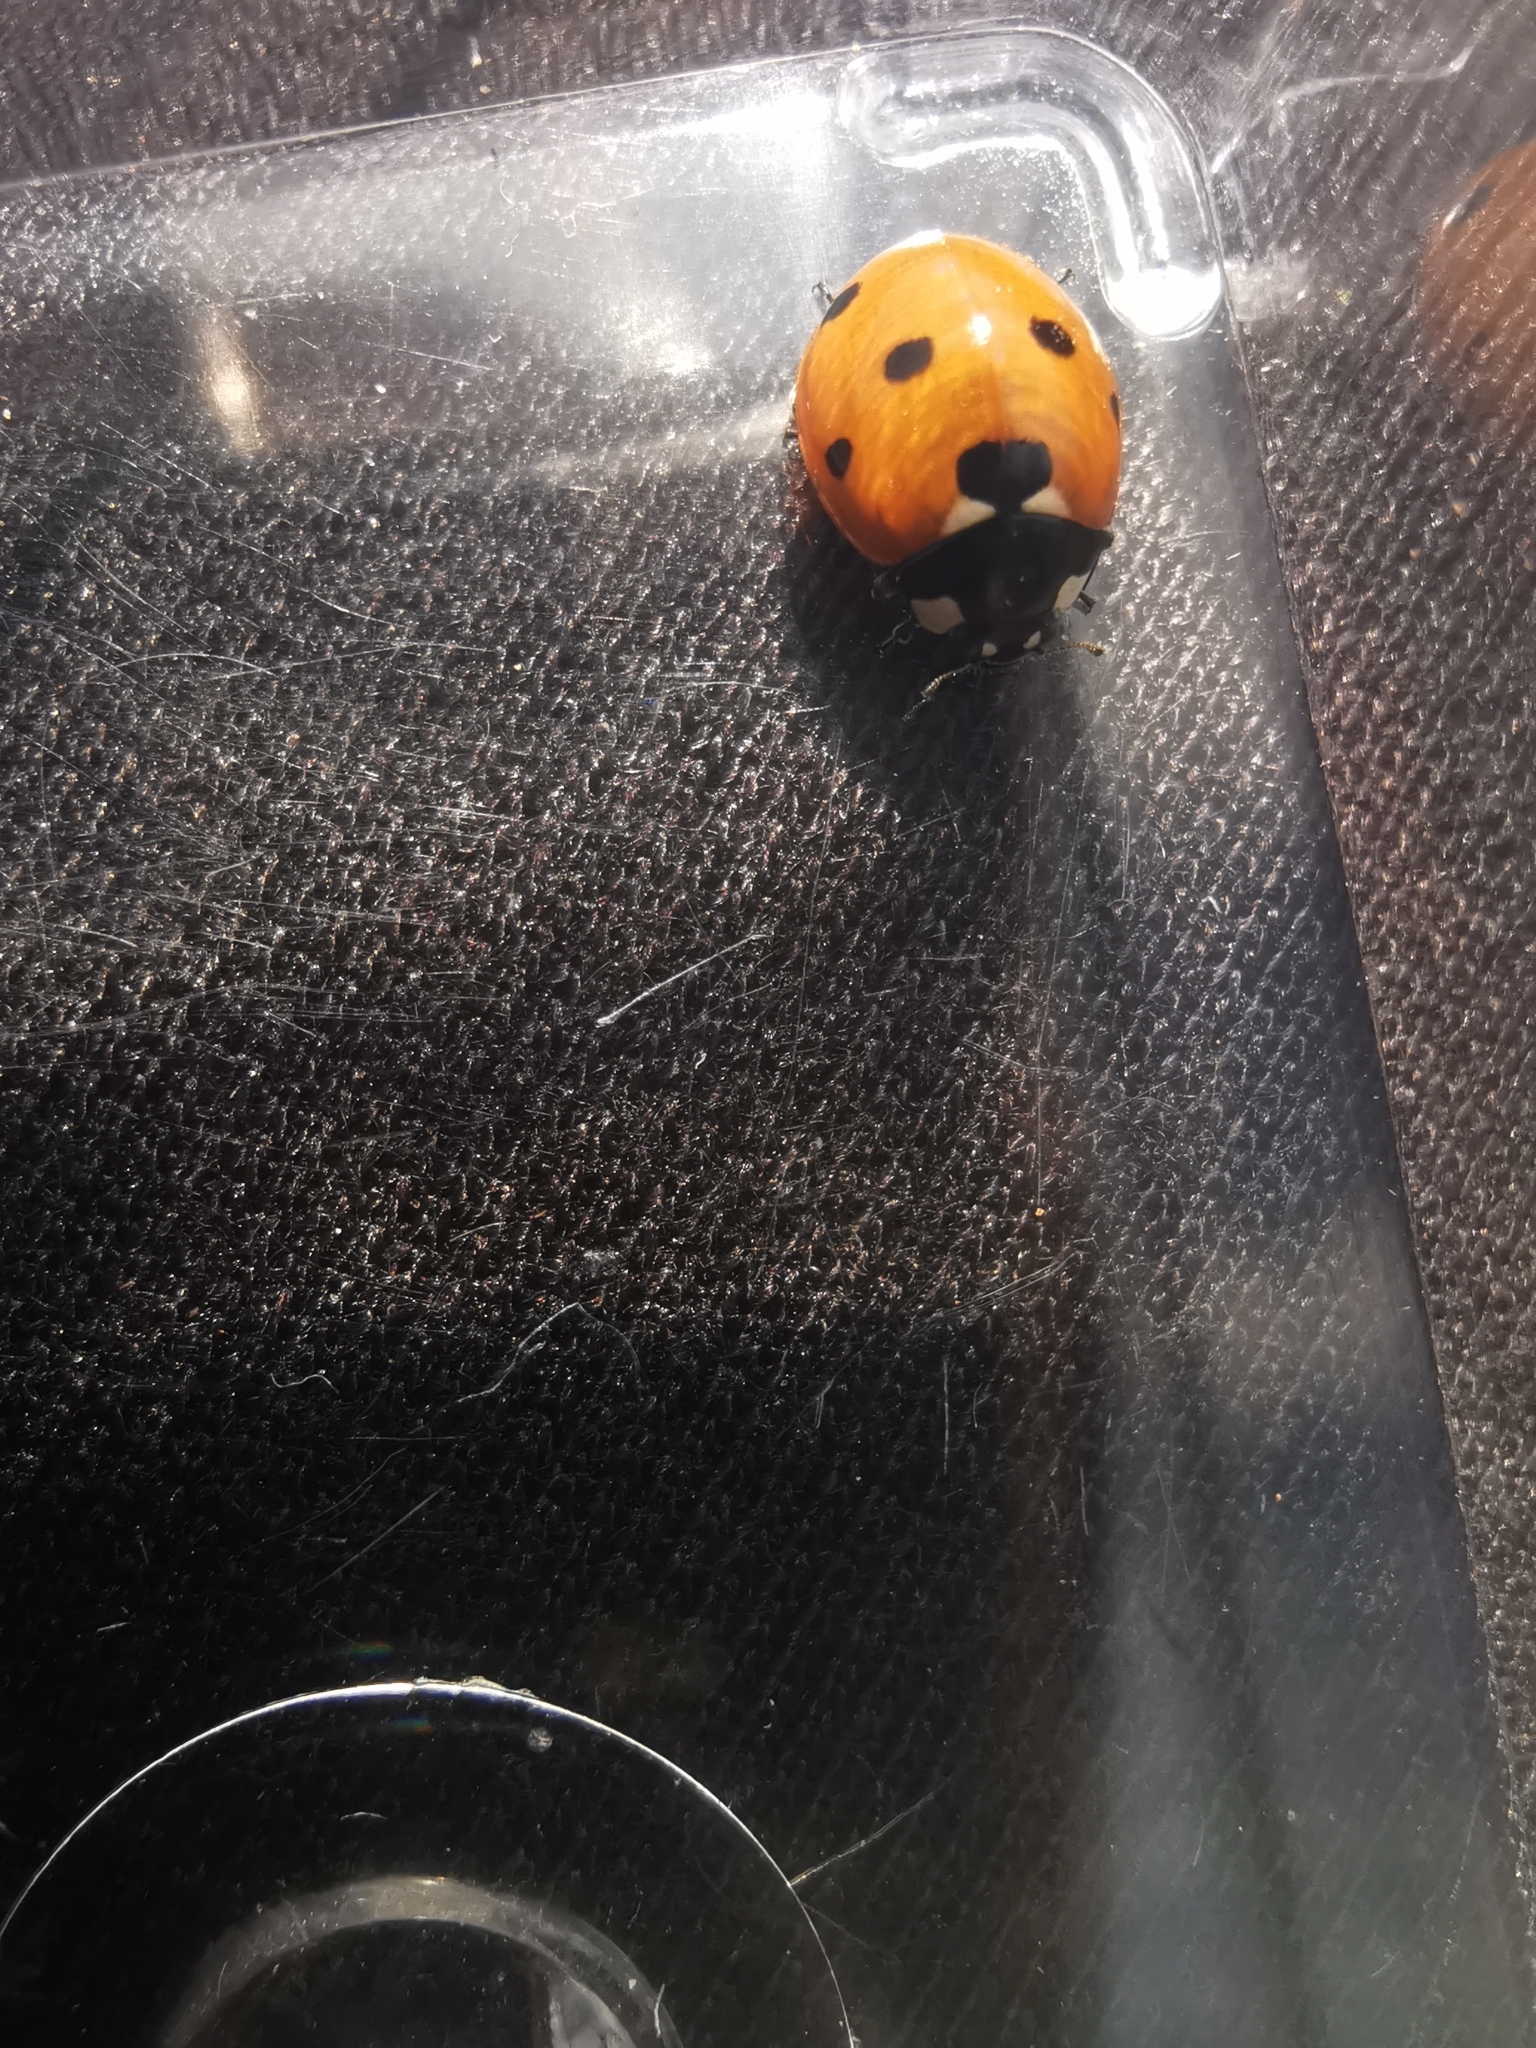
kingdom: Animalia
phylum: Arthropoda
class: Insecta
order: Coleoptera
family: Coccinellidae
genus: Coccinella
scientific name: Coccinella septempunctata
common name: Sevenspotted lady beetle
